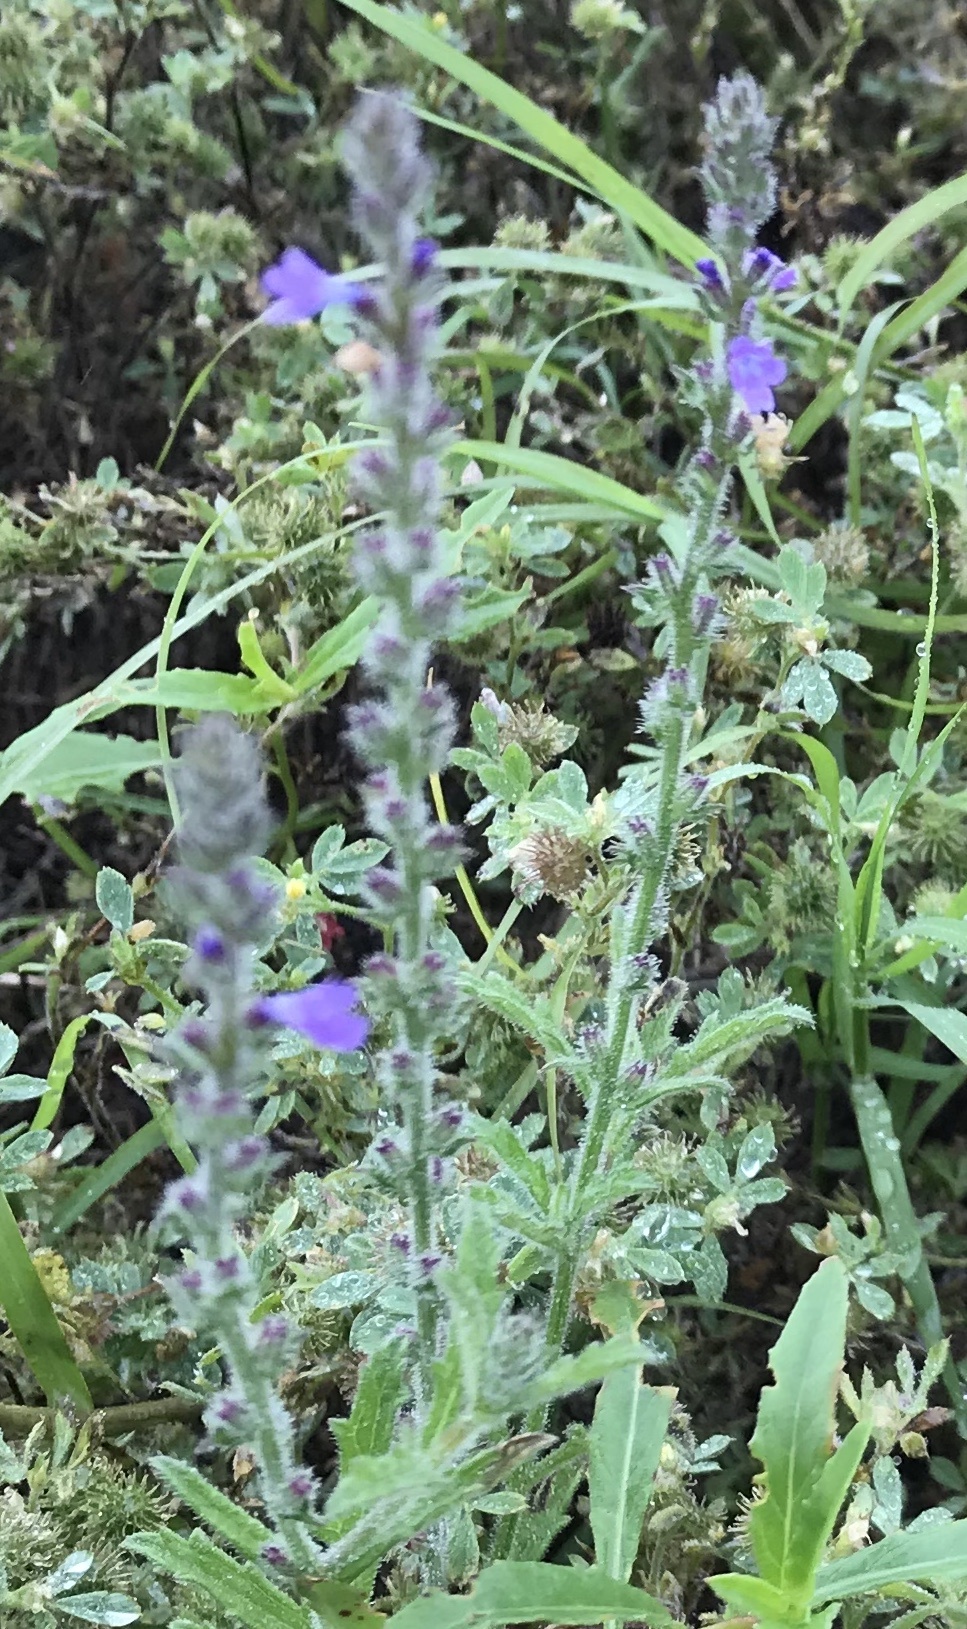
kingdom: Plantae
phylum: Tracheophyta
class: Magnoliopsida
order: Lamiales
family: Verbenaceae
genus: Verbena
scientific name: Verbena canescens
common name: Gray vervain
